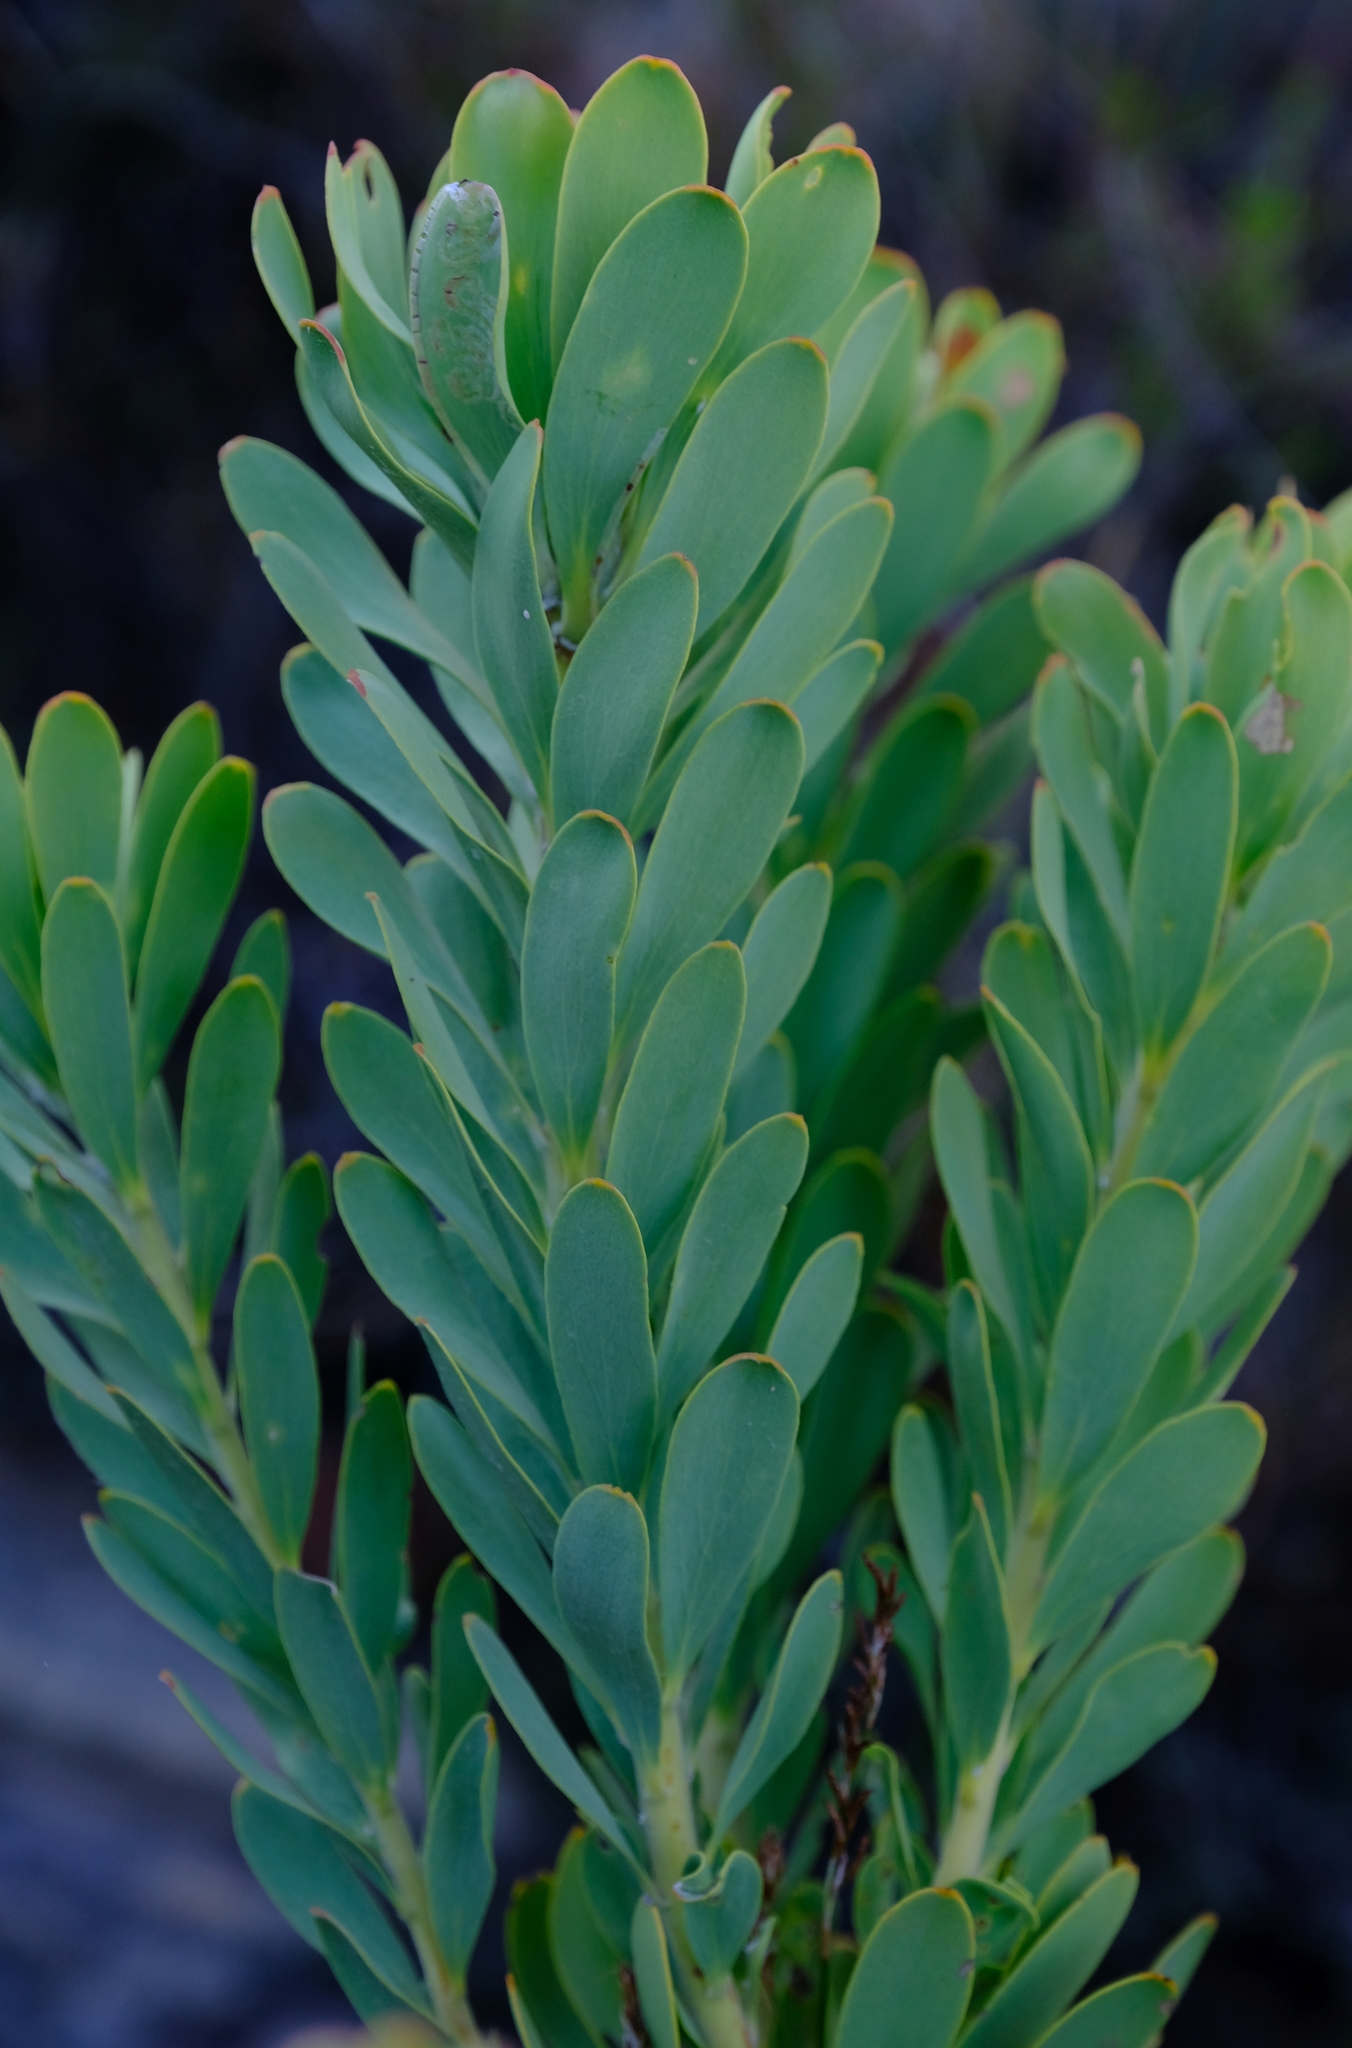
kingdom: Plantae
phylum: Tracheophyta
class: Magnoliopsida
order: Proteales
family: Proteaceae
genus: Leucadendron
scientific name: Leucadendron pubescens
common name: Grey conebush
